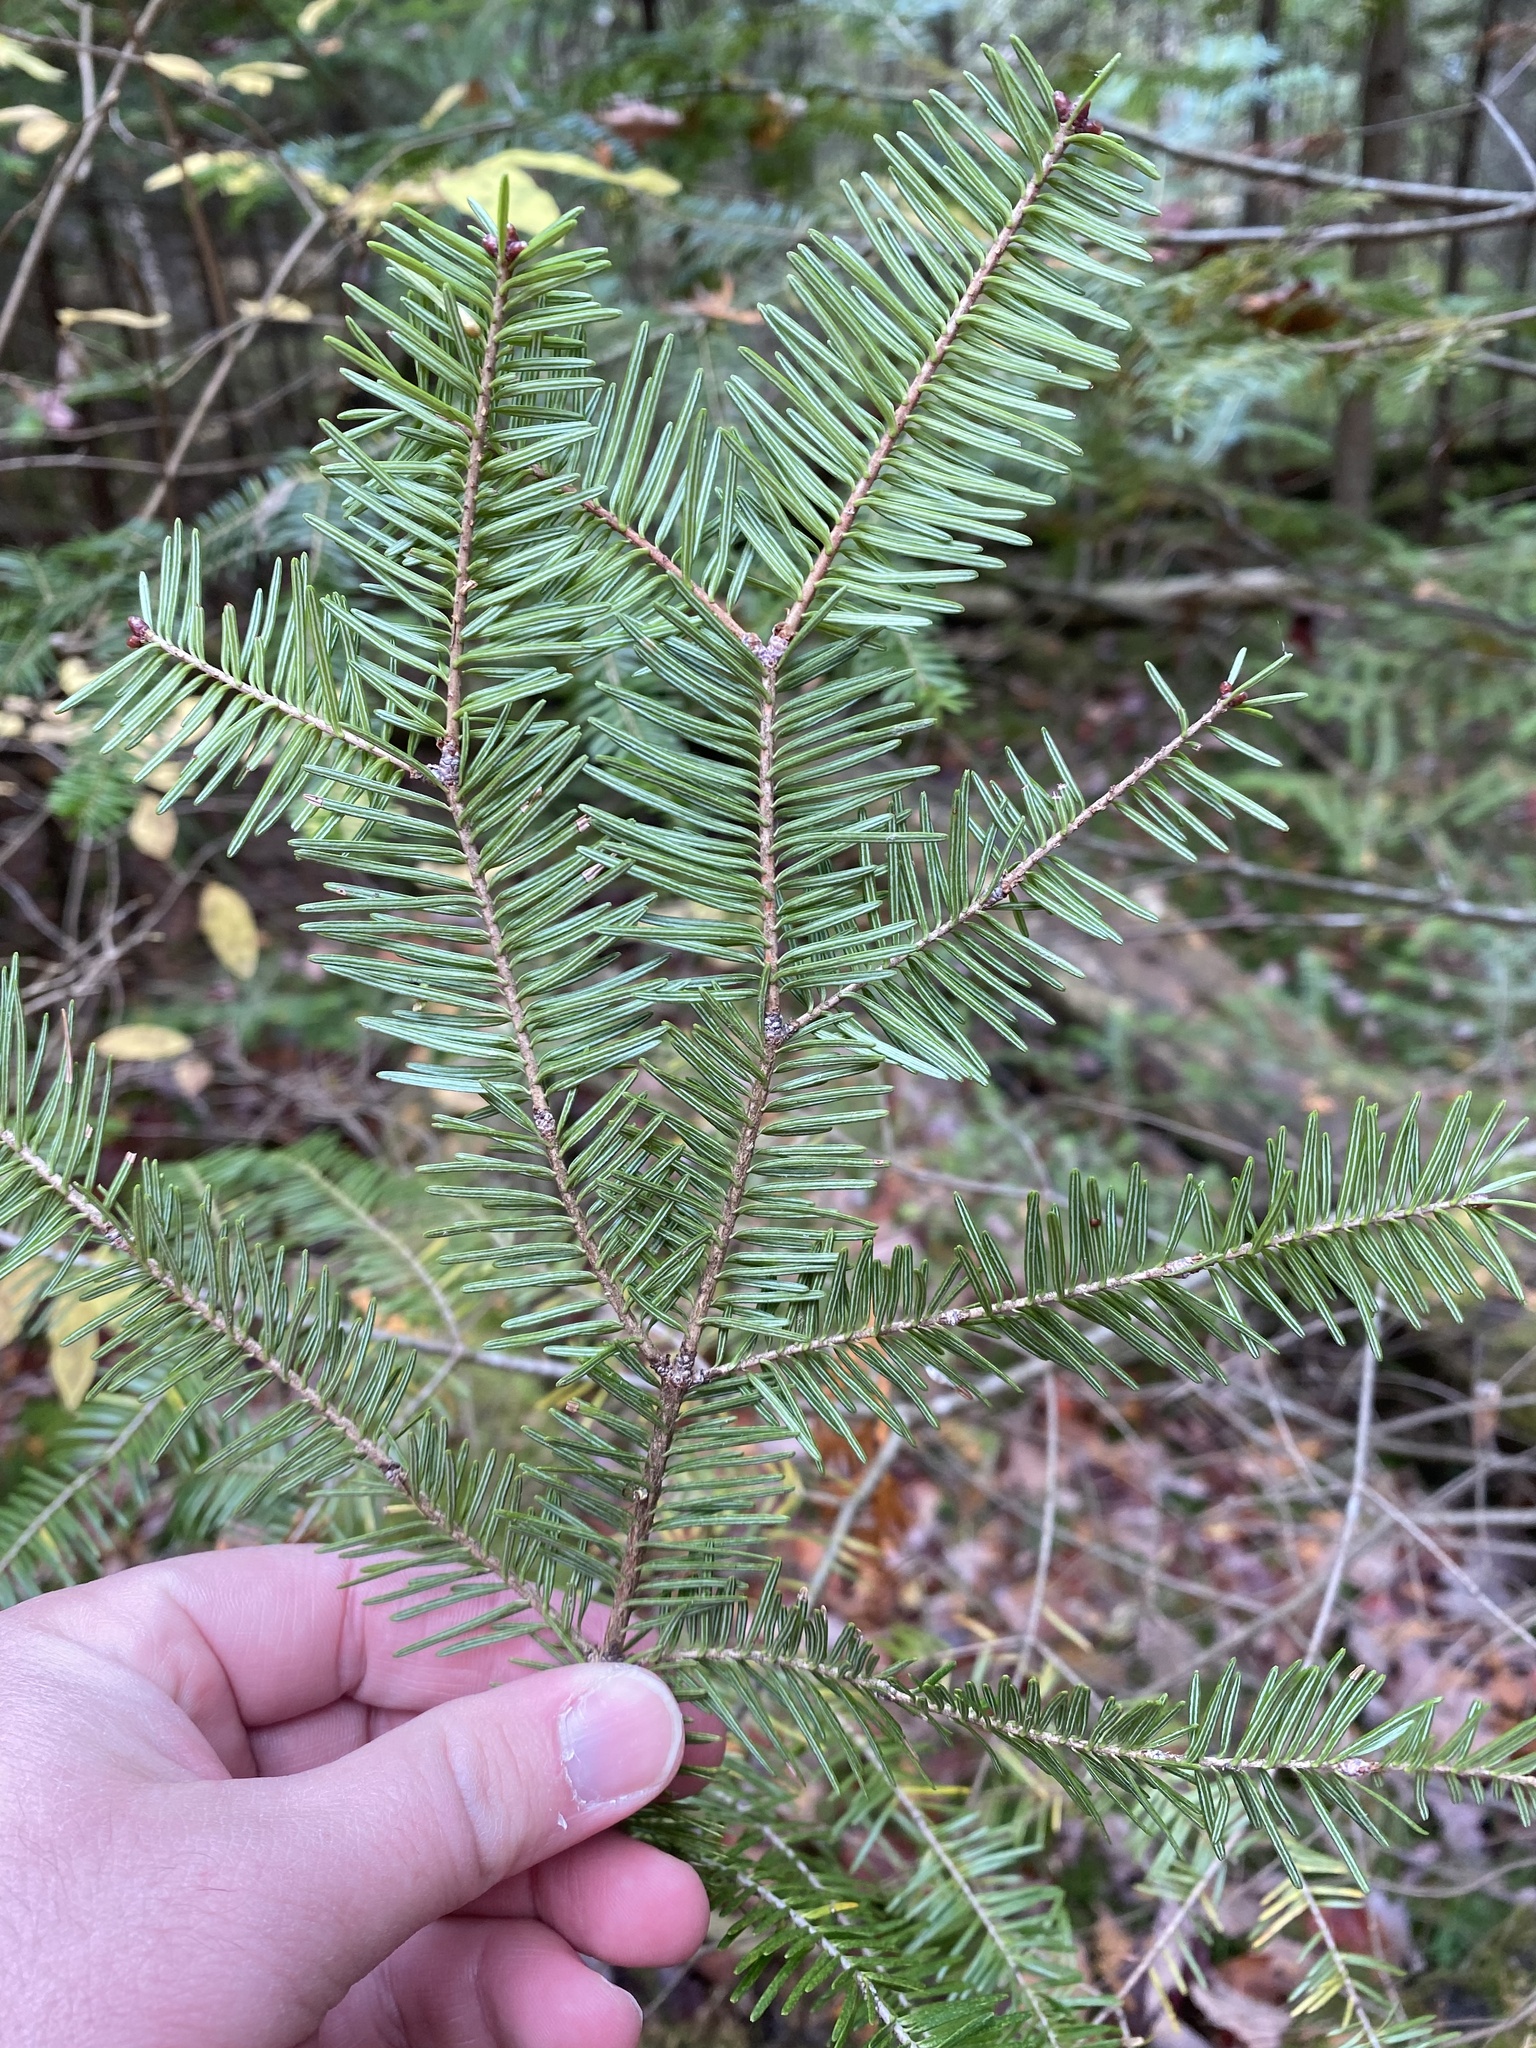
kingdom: Plantae
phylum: Tracheophyta
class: Pinopsida
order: Pinales
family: Pinaceae
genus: Abies
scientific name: Abies balsamea
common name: Balsam fir
